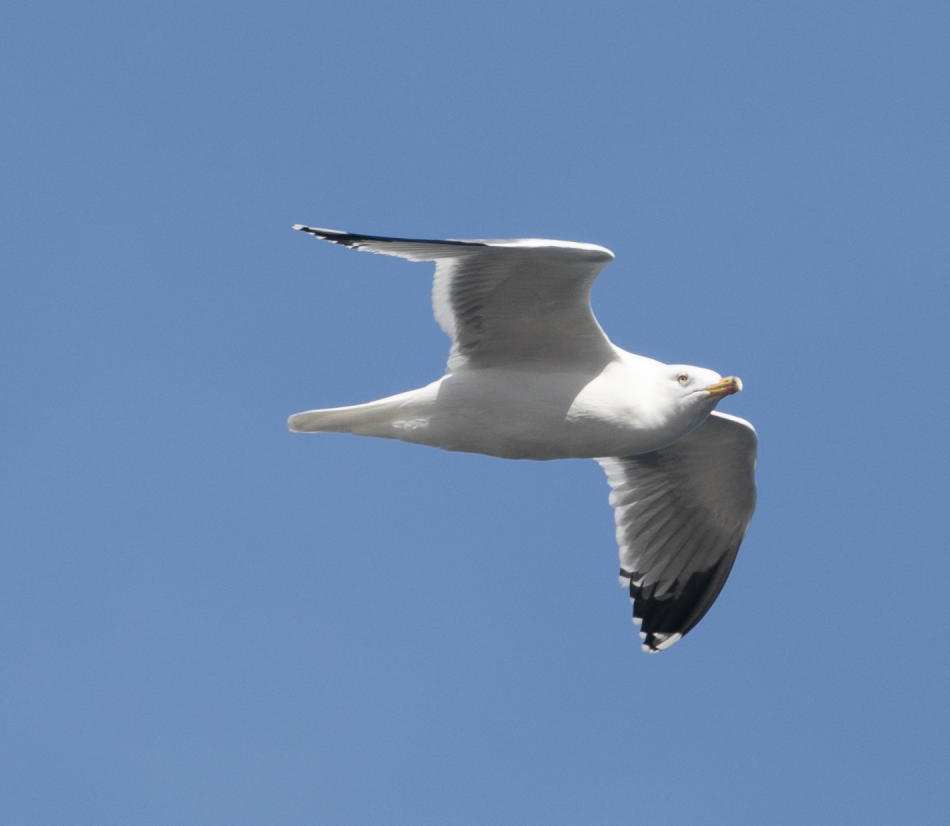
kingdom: Animalia
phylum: Chordata
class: Aves
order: Charadriiformes
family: Laridae
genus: Larus
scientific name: Larus michahellis
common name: Yellow-legged gull
